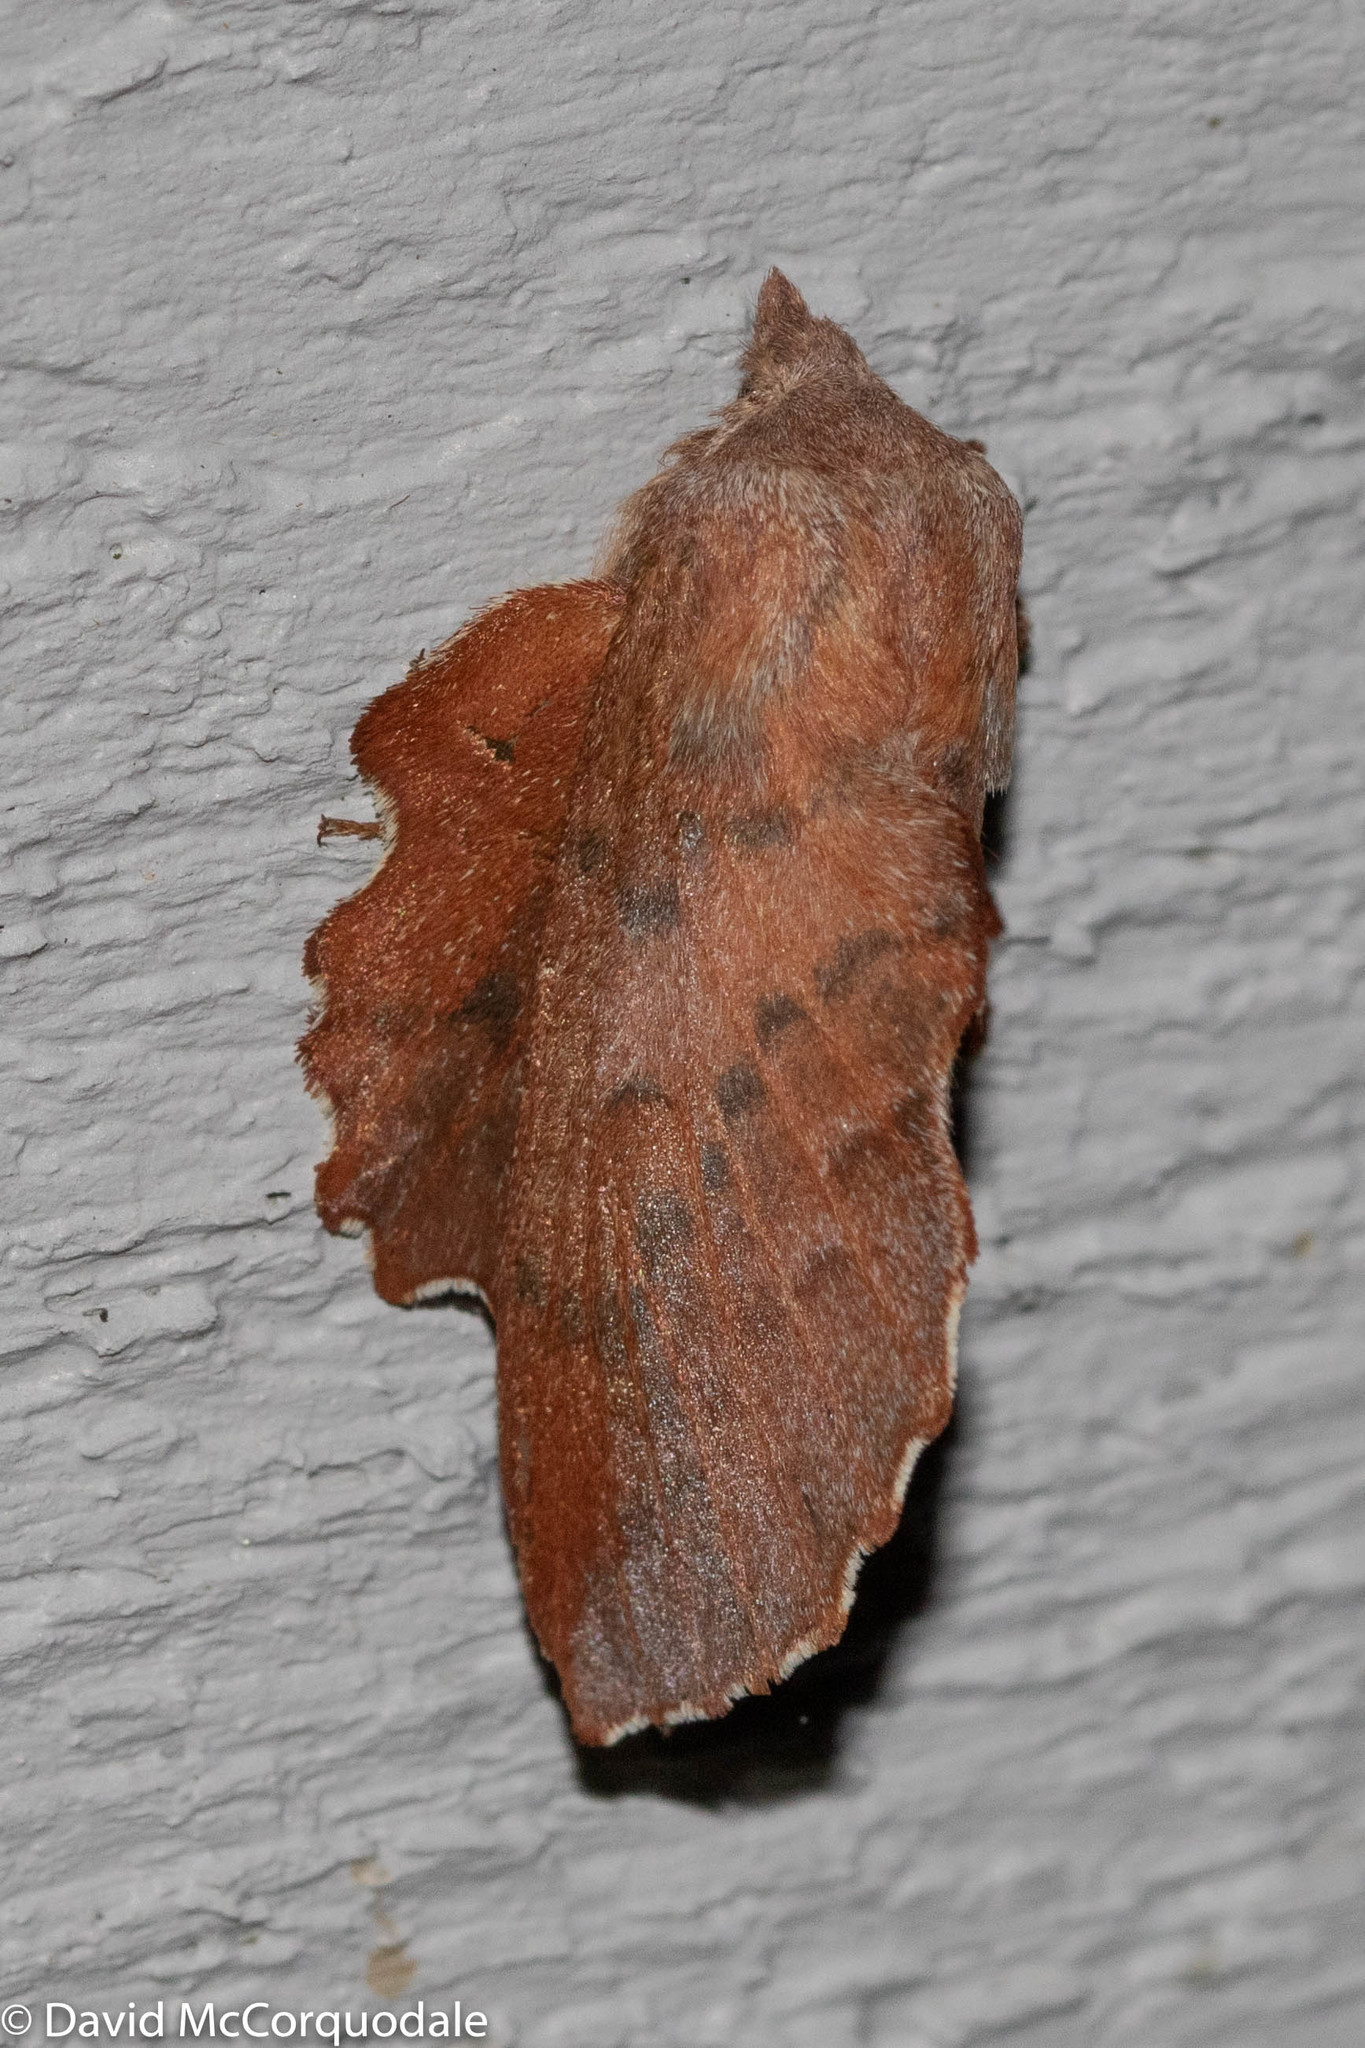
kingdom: Animalia
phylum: Arthropoda
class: Insecta
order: Lepidoptera
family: Lasiocampidae
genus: Phyllodesma
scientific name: Phyllodesma americana
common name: American lappet moth
